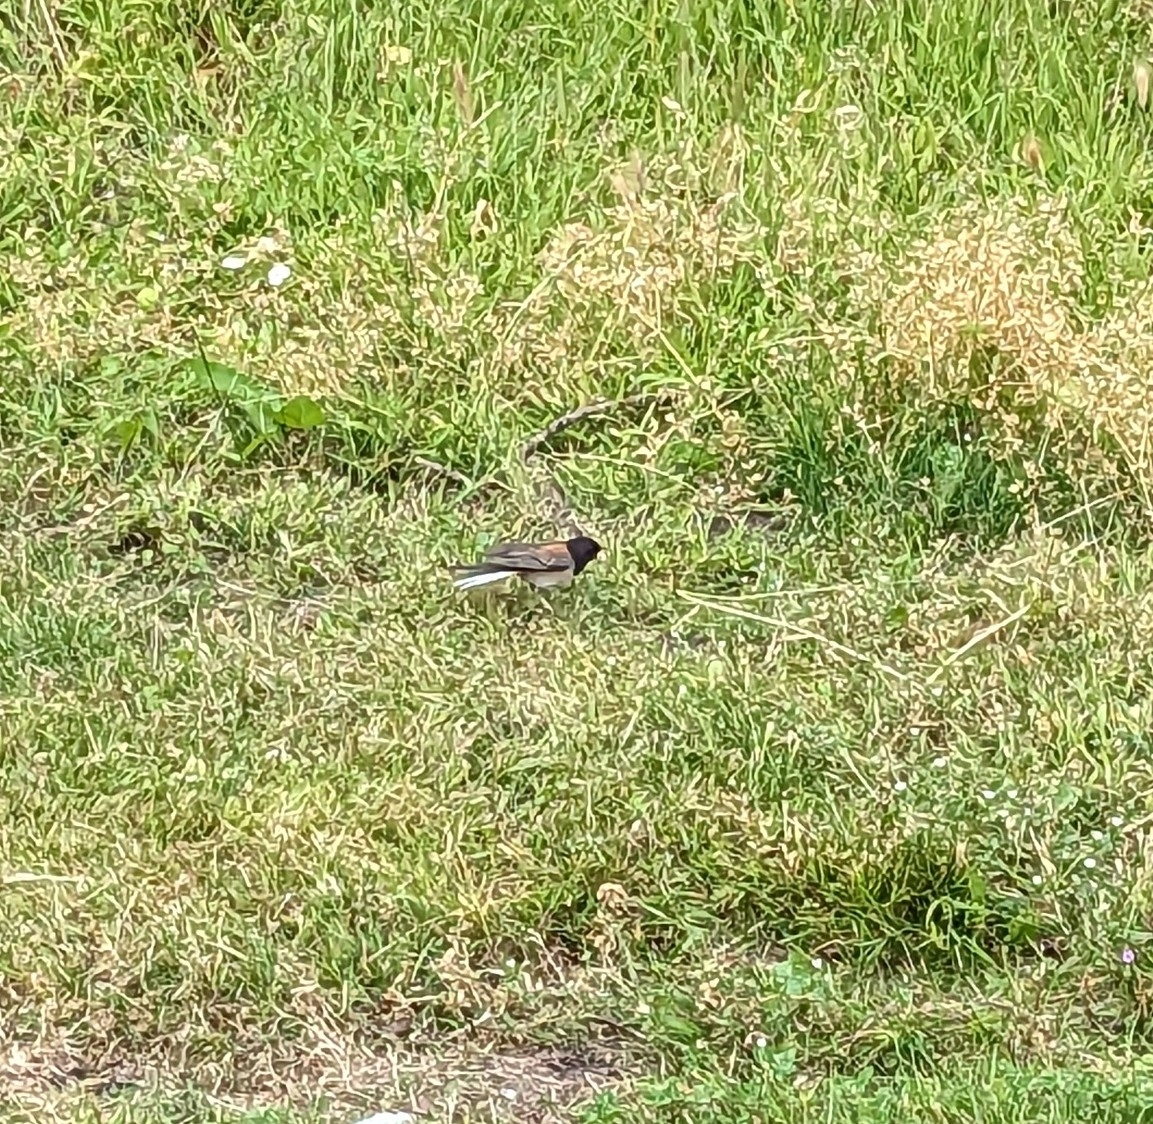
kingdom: Animalia
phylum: Chordata
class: Aves
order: Passeriformes
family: Passerellidae
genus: Junco
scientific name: Junco hyemalis
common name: Dark-eyed junco
